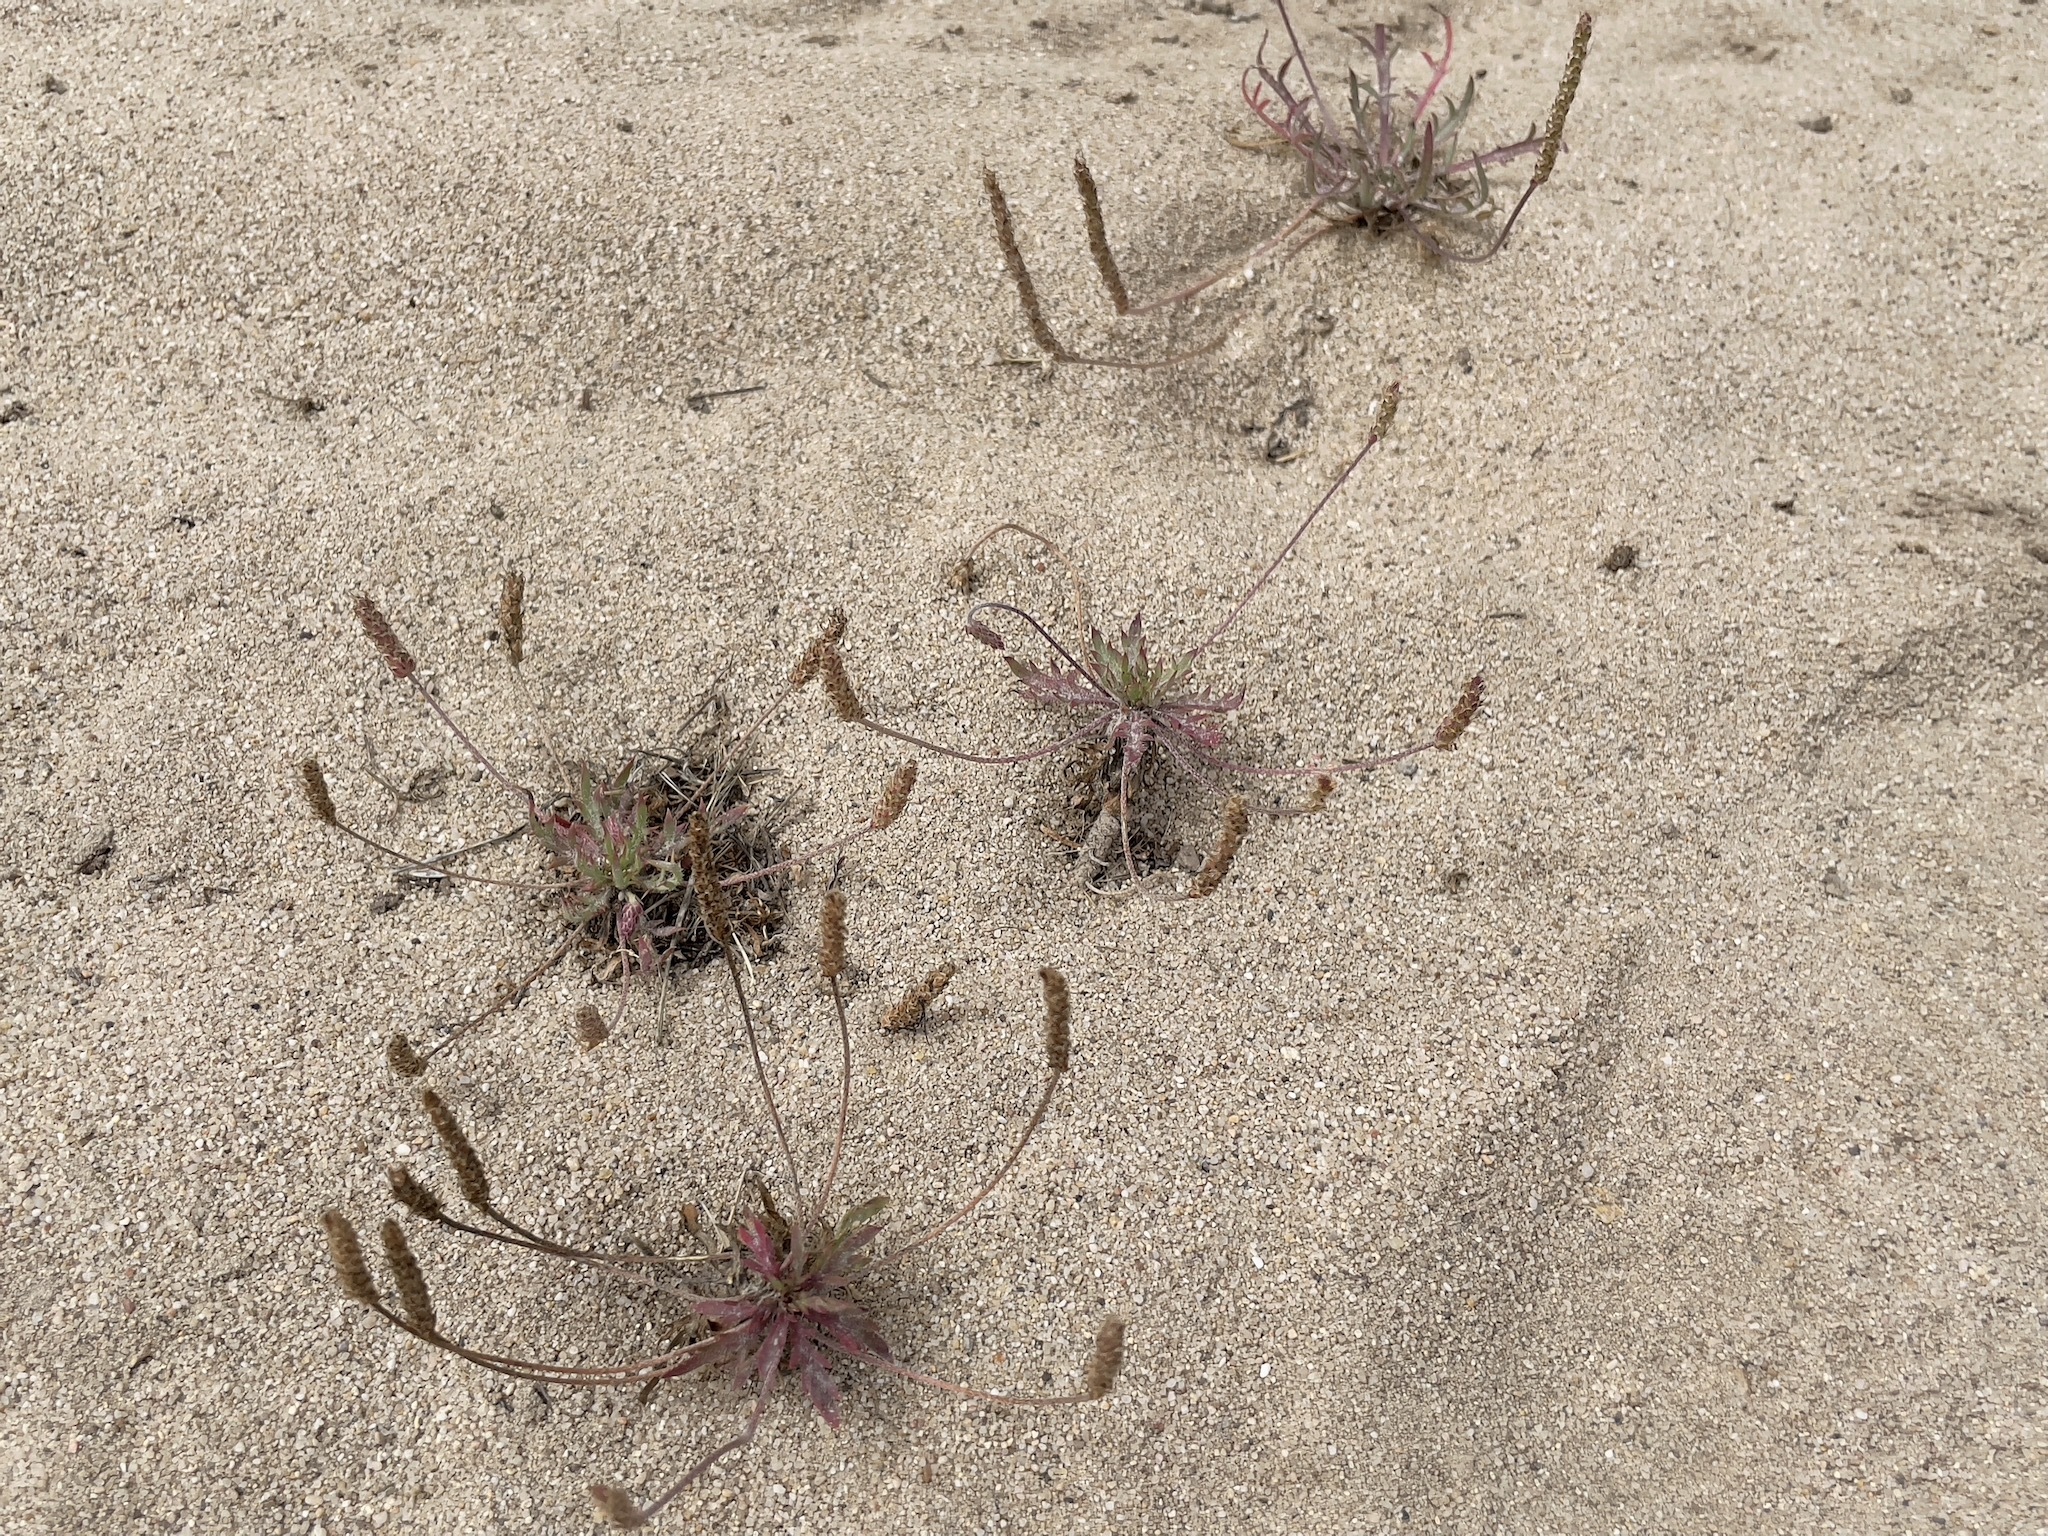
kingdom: Plantae
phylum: Tracheophyta
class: Magnoliopsida
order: Lamiales
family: Plantaginaceae
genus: Plantago
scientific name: Plantago coronopus
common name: Buck's-horn plantain
